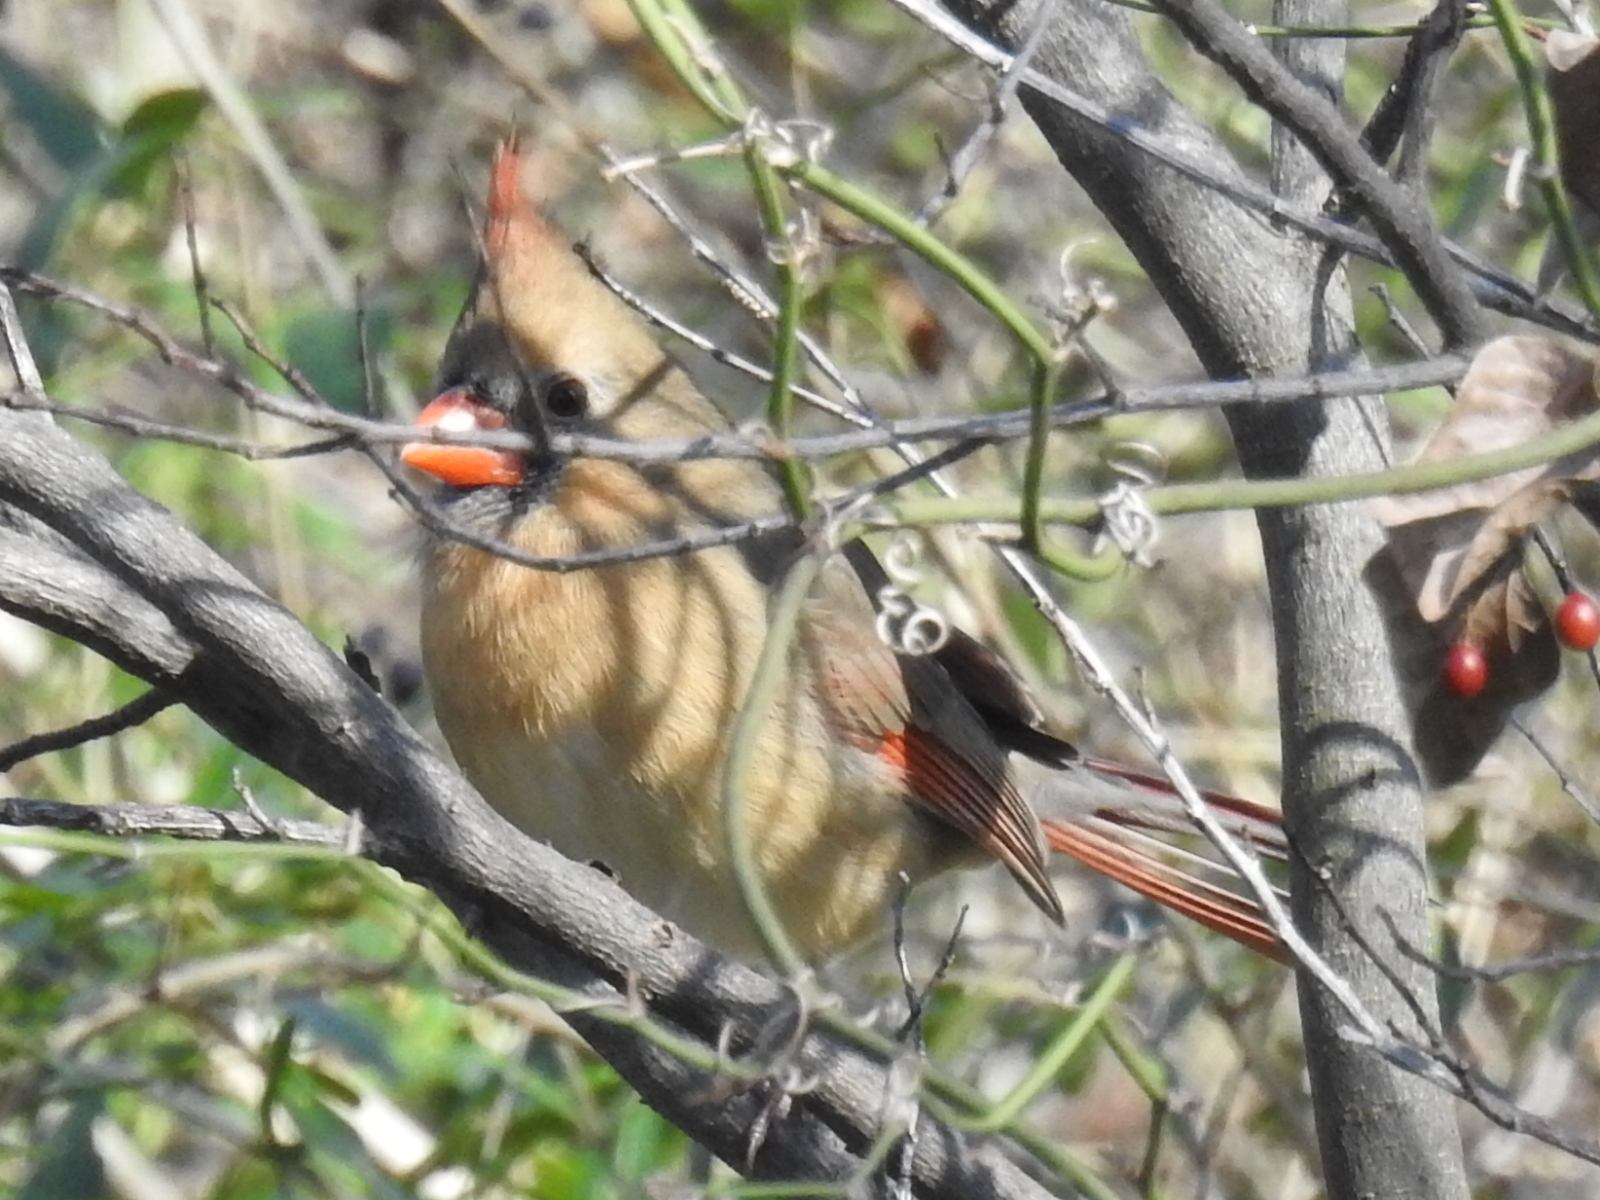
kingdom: Animalia
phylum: Chordata
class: Aves
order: Passeriformes
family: Cardinalidae
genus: Cardinalis
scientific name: Cardinalis cardinalis
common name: Northern cardinal
